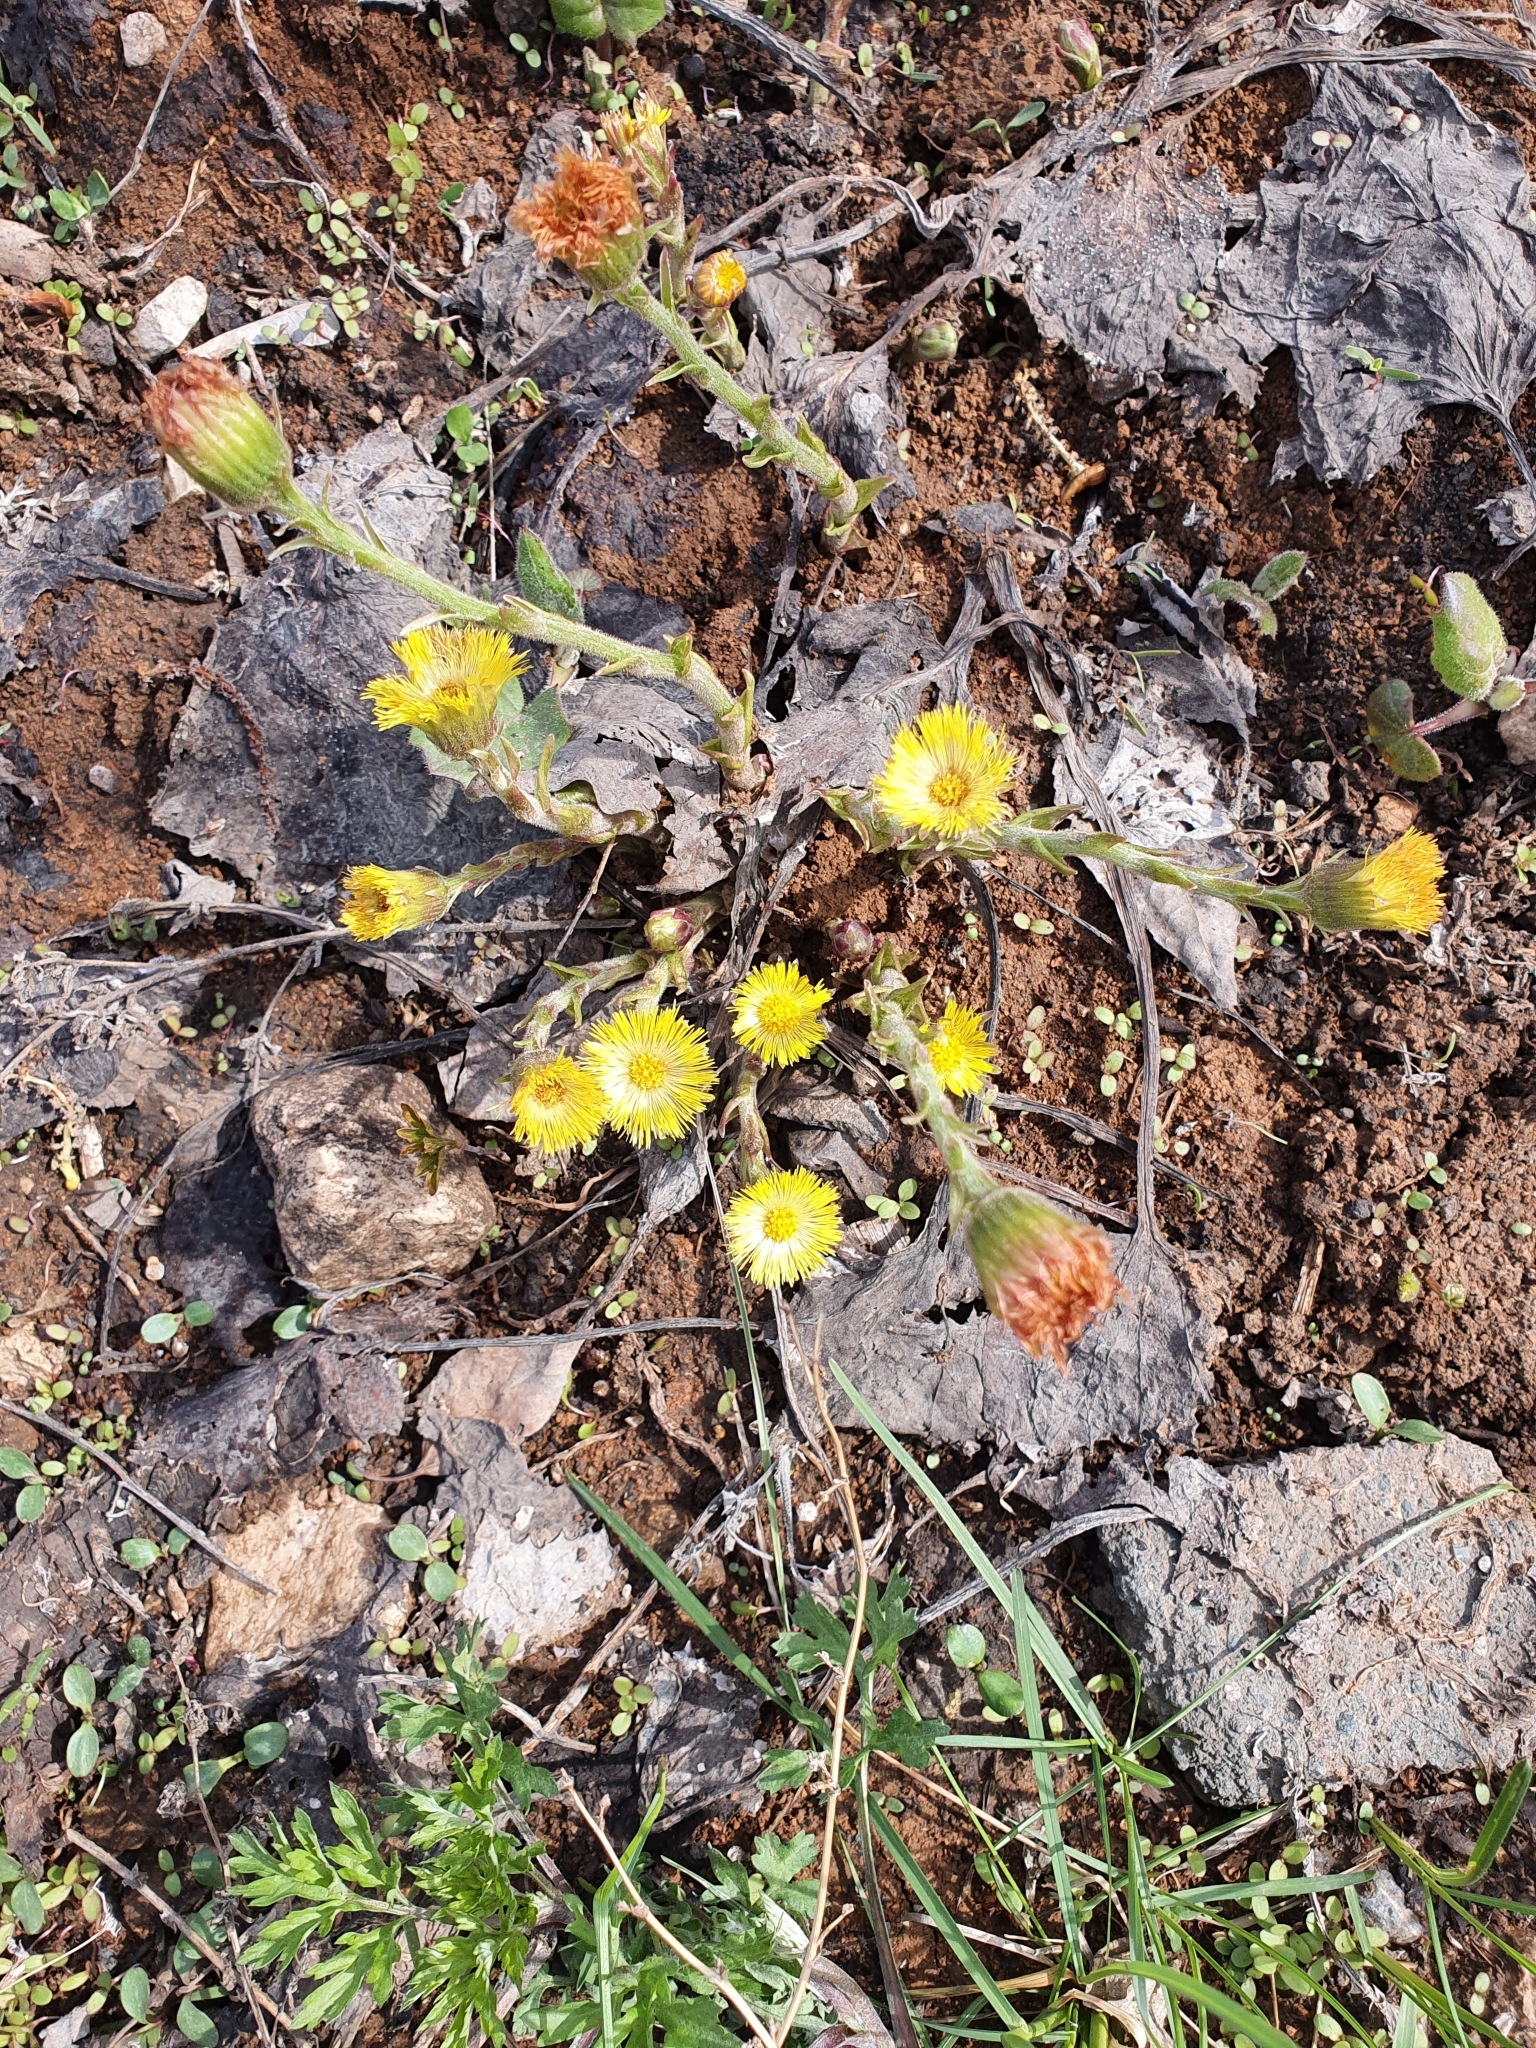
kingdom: Plantae
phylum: Tracheophyta
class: Magnoliopsida
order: Asterales
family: Asteraceae
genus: Tussilago
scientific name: Tussilago farfara
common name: Coltsfoot
